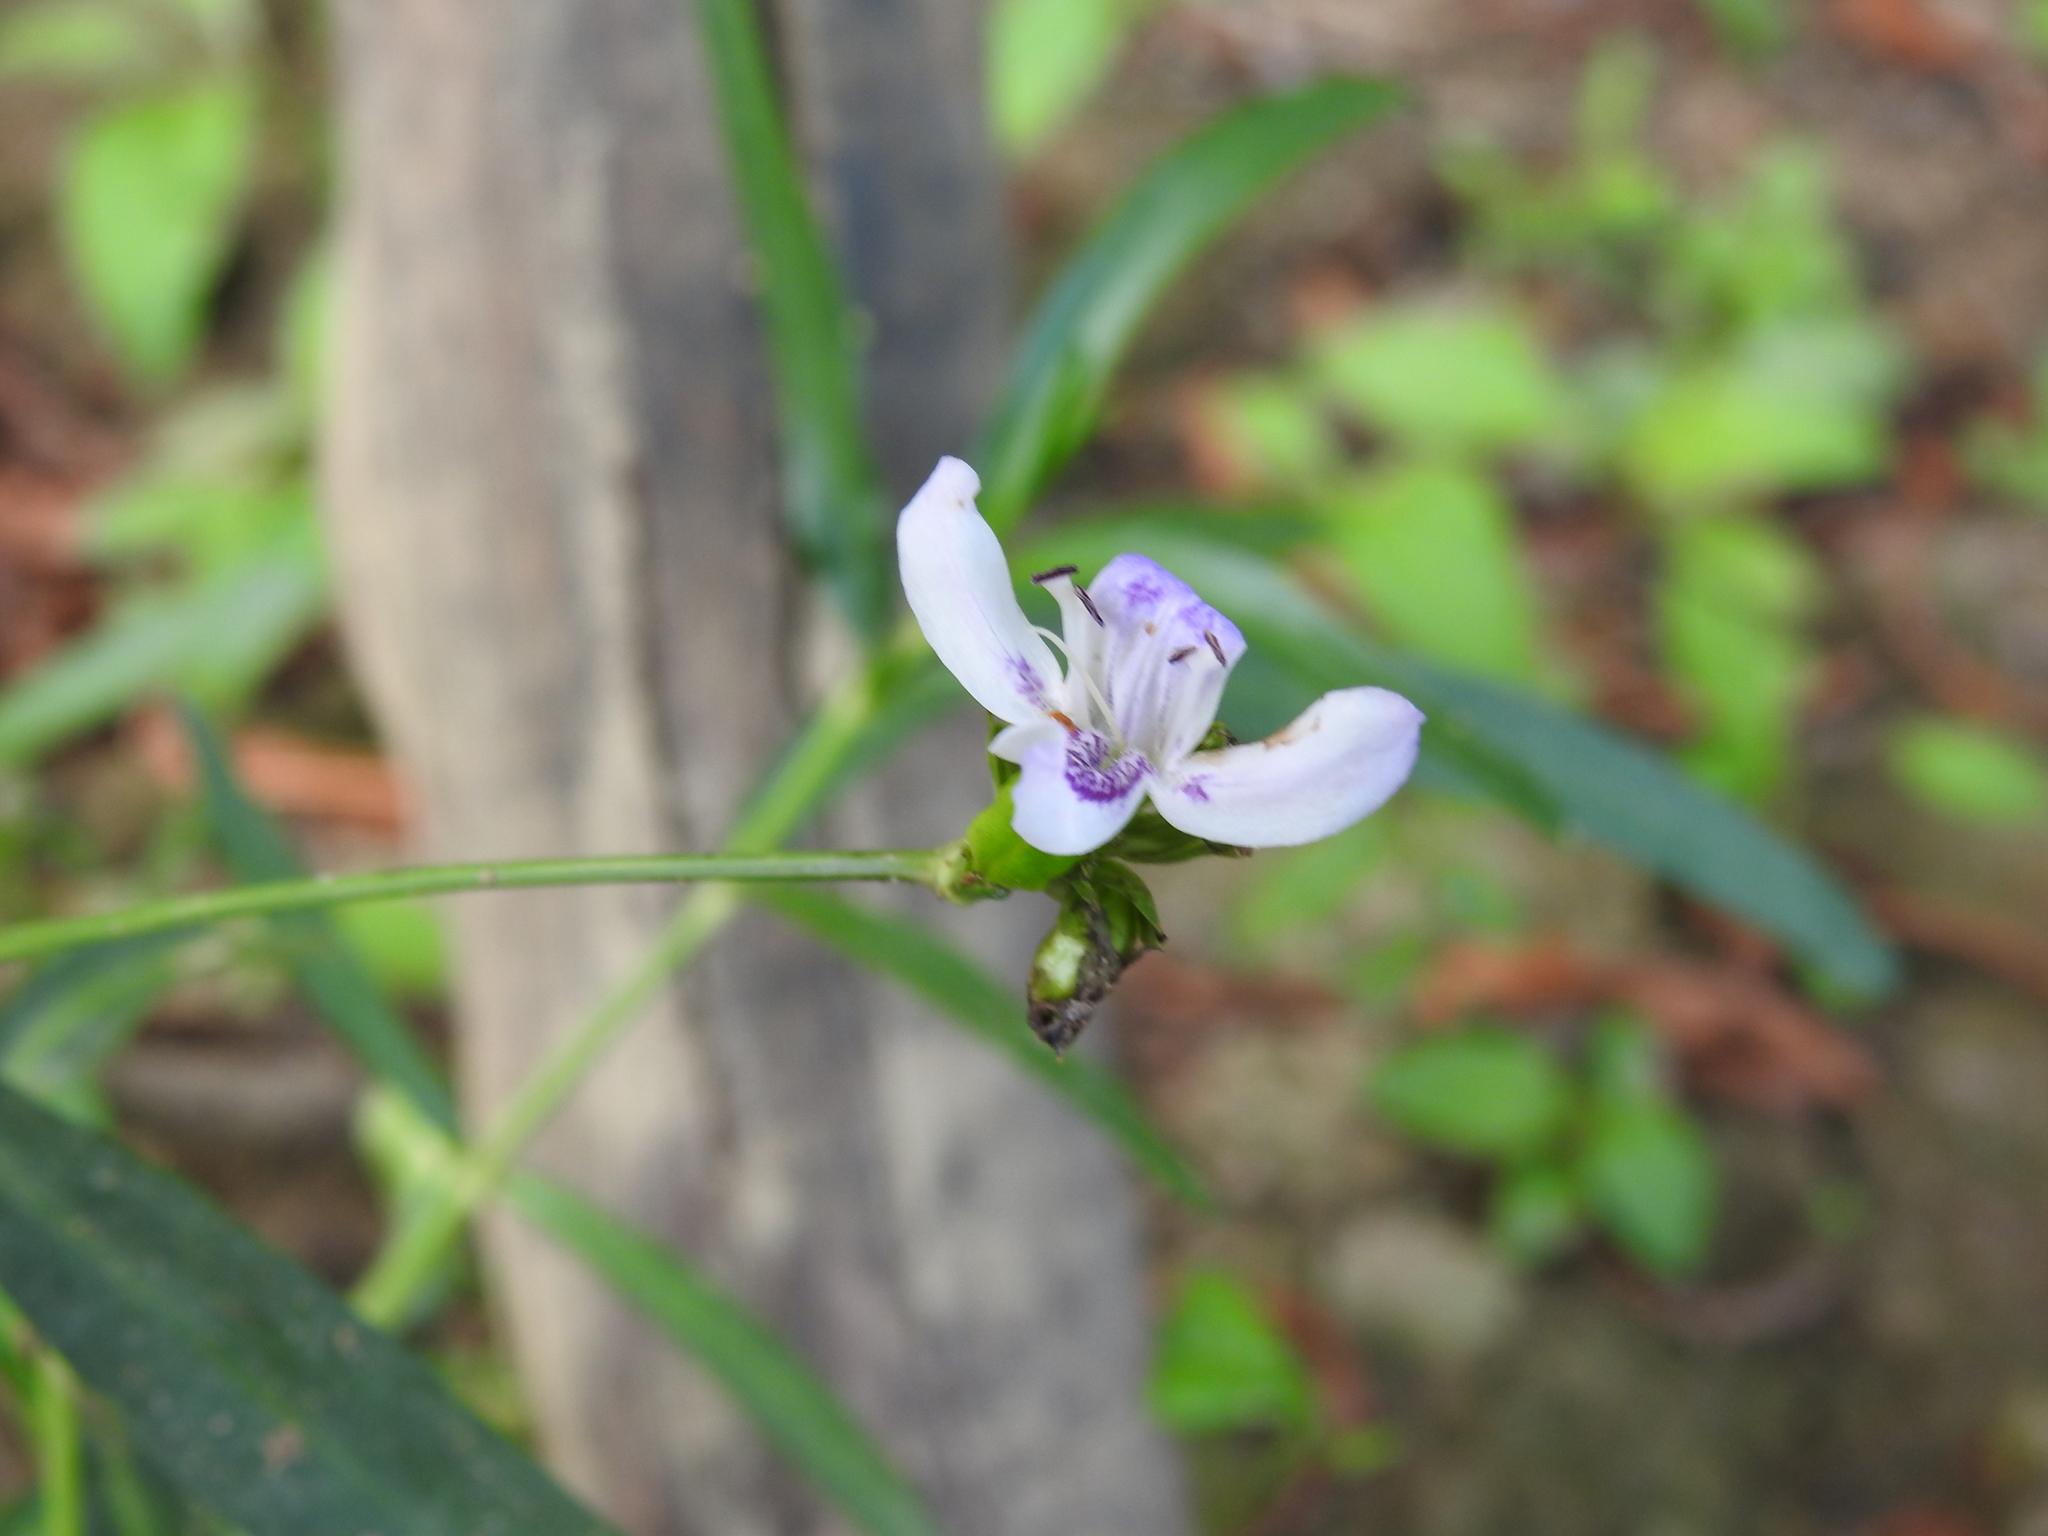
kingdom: Plantae
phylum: Tracheophyta
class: Magnoliopsida
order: Lamiales
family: Acanthaceae
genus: Dianthera
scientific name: Dianthera americana
